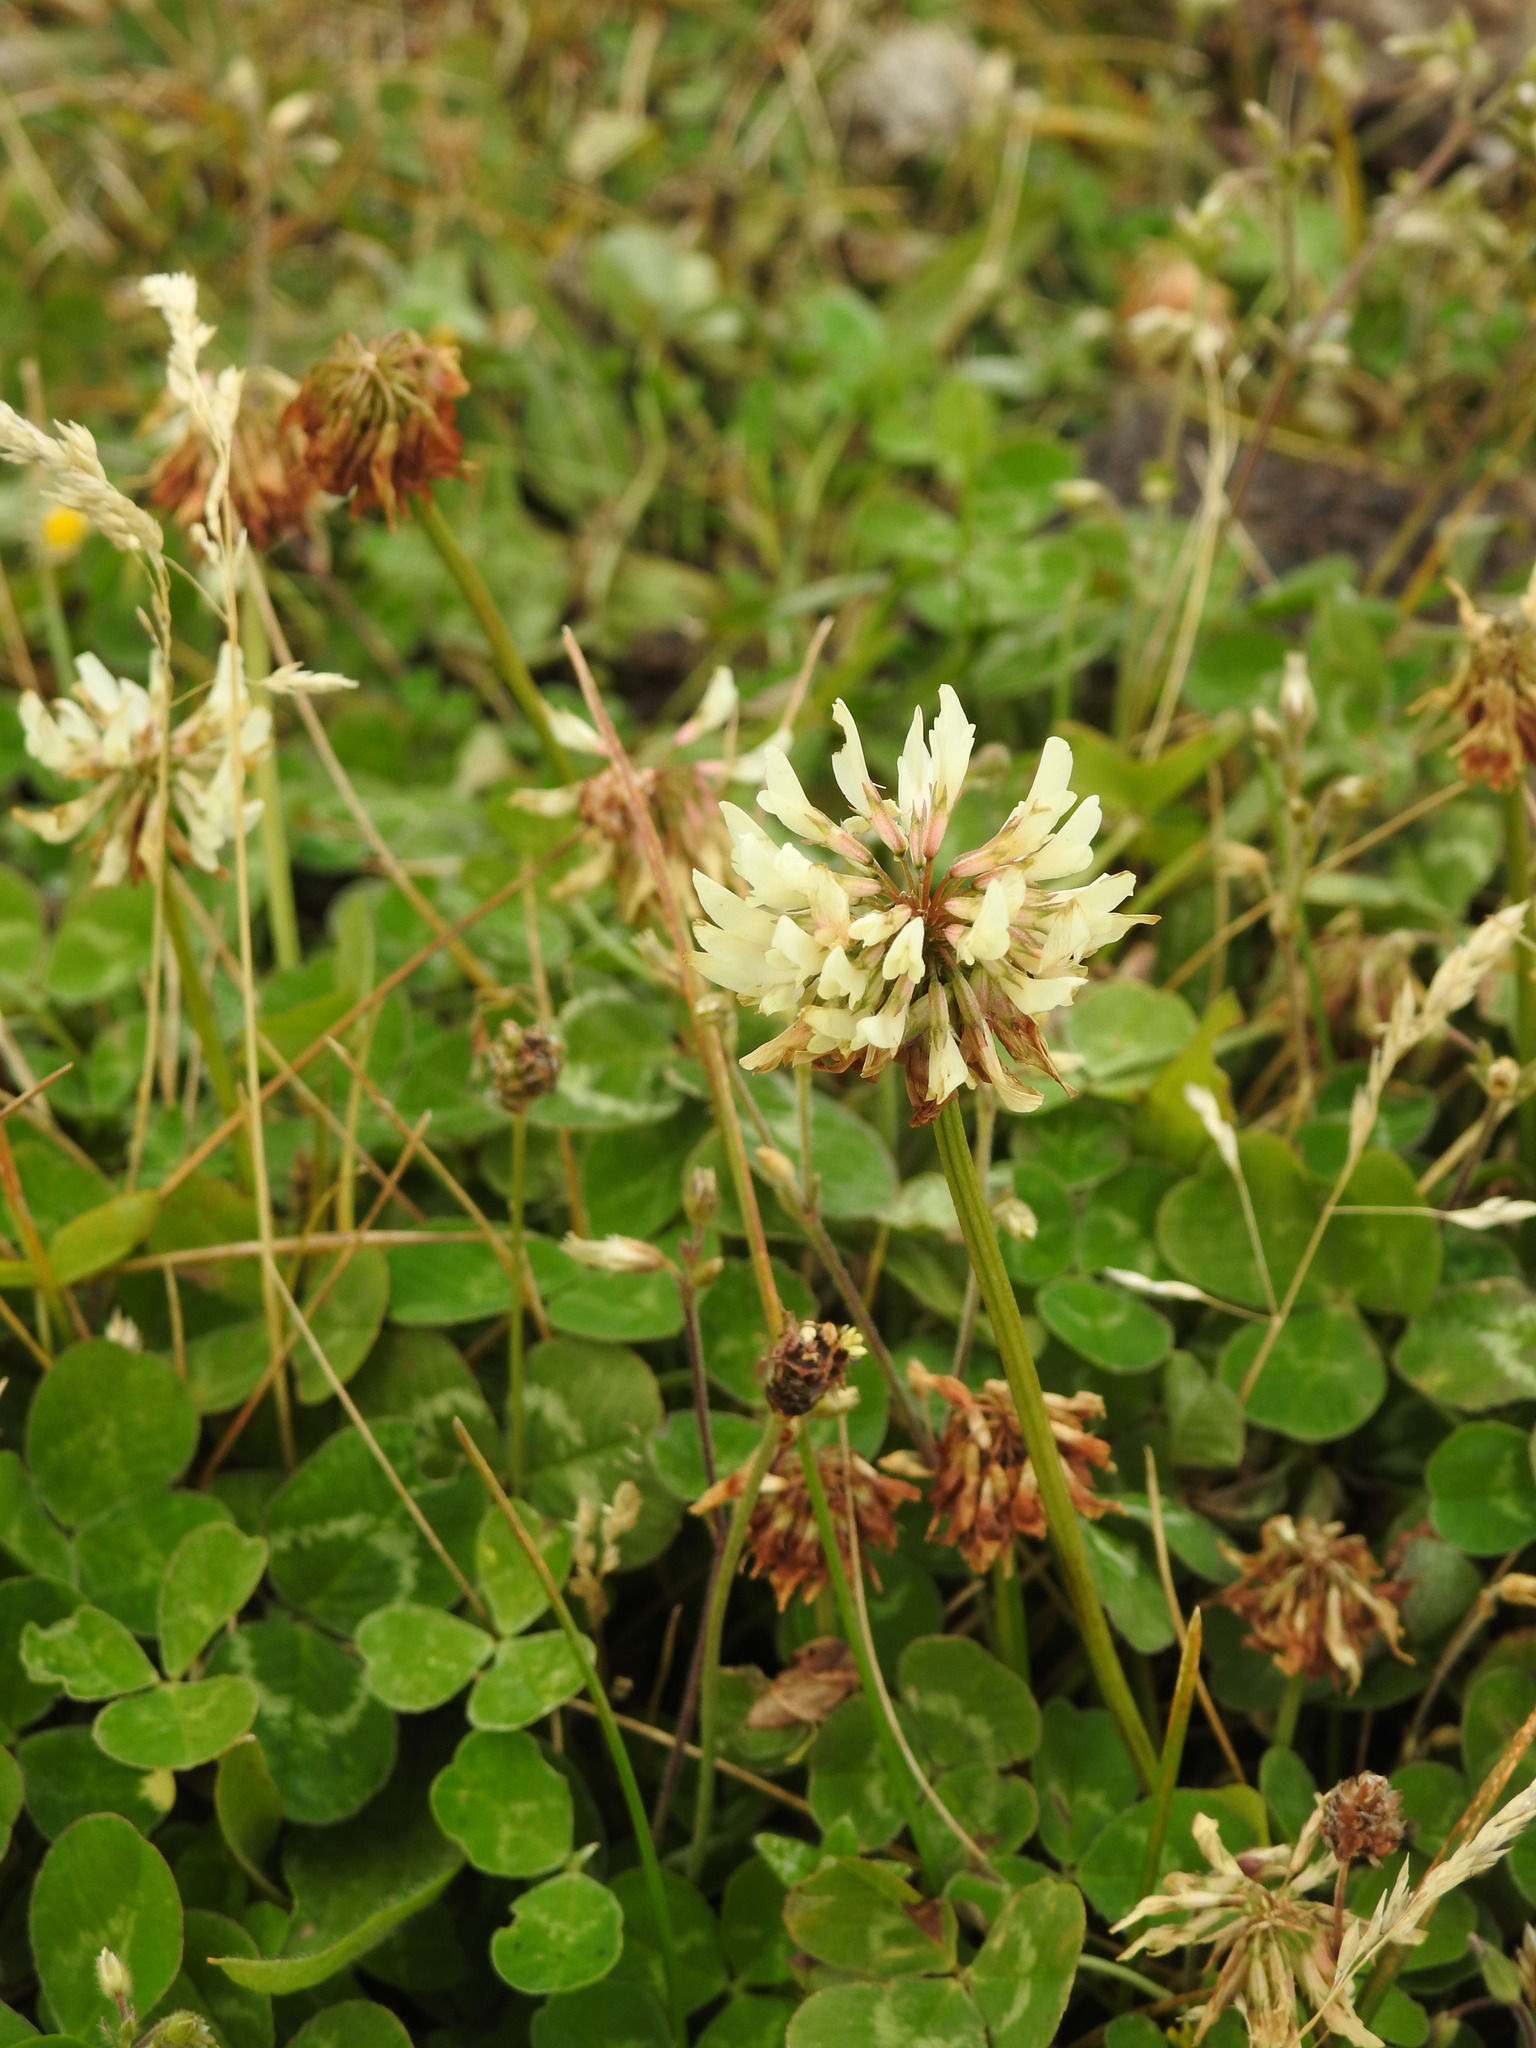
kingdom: Plantae
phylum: Tracheophyta
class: Magnoliopsida
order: Fabales
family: Fabaceae
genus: Trifolium
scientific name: Trifolium repens
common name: White clover
